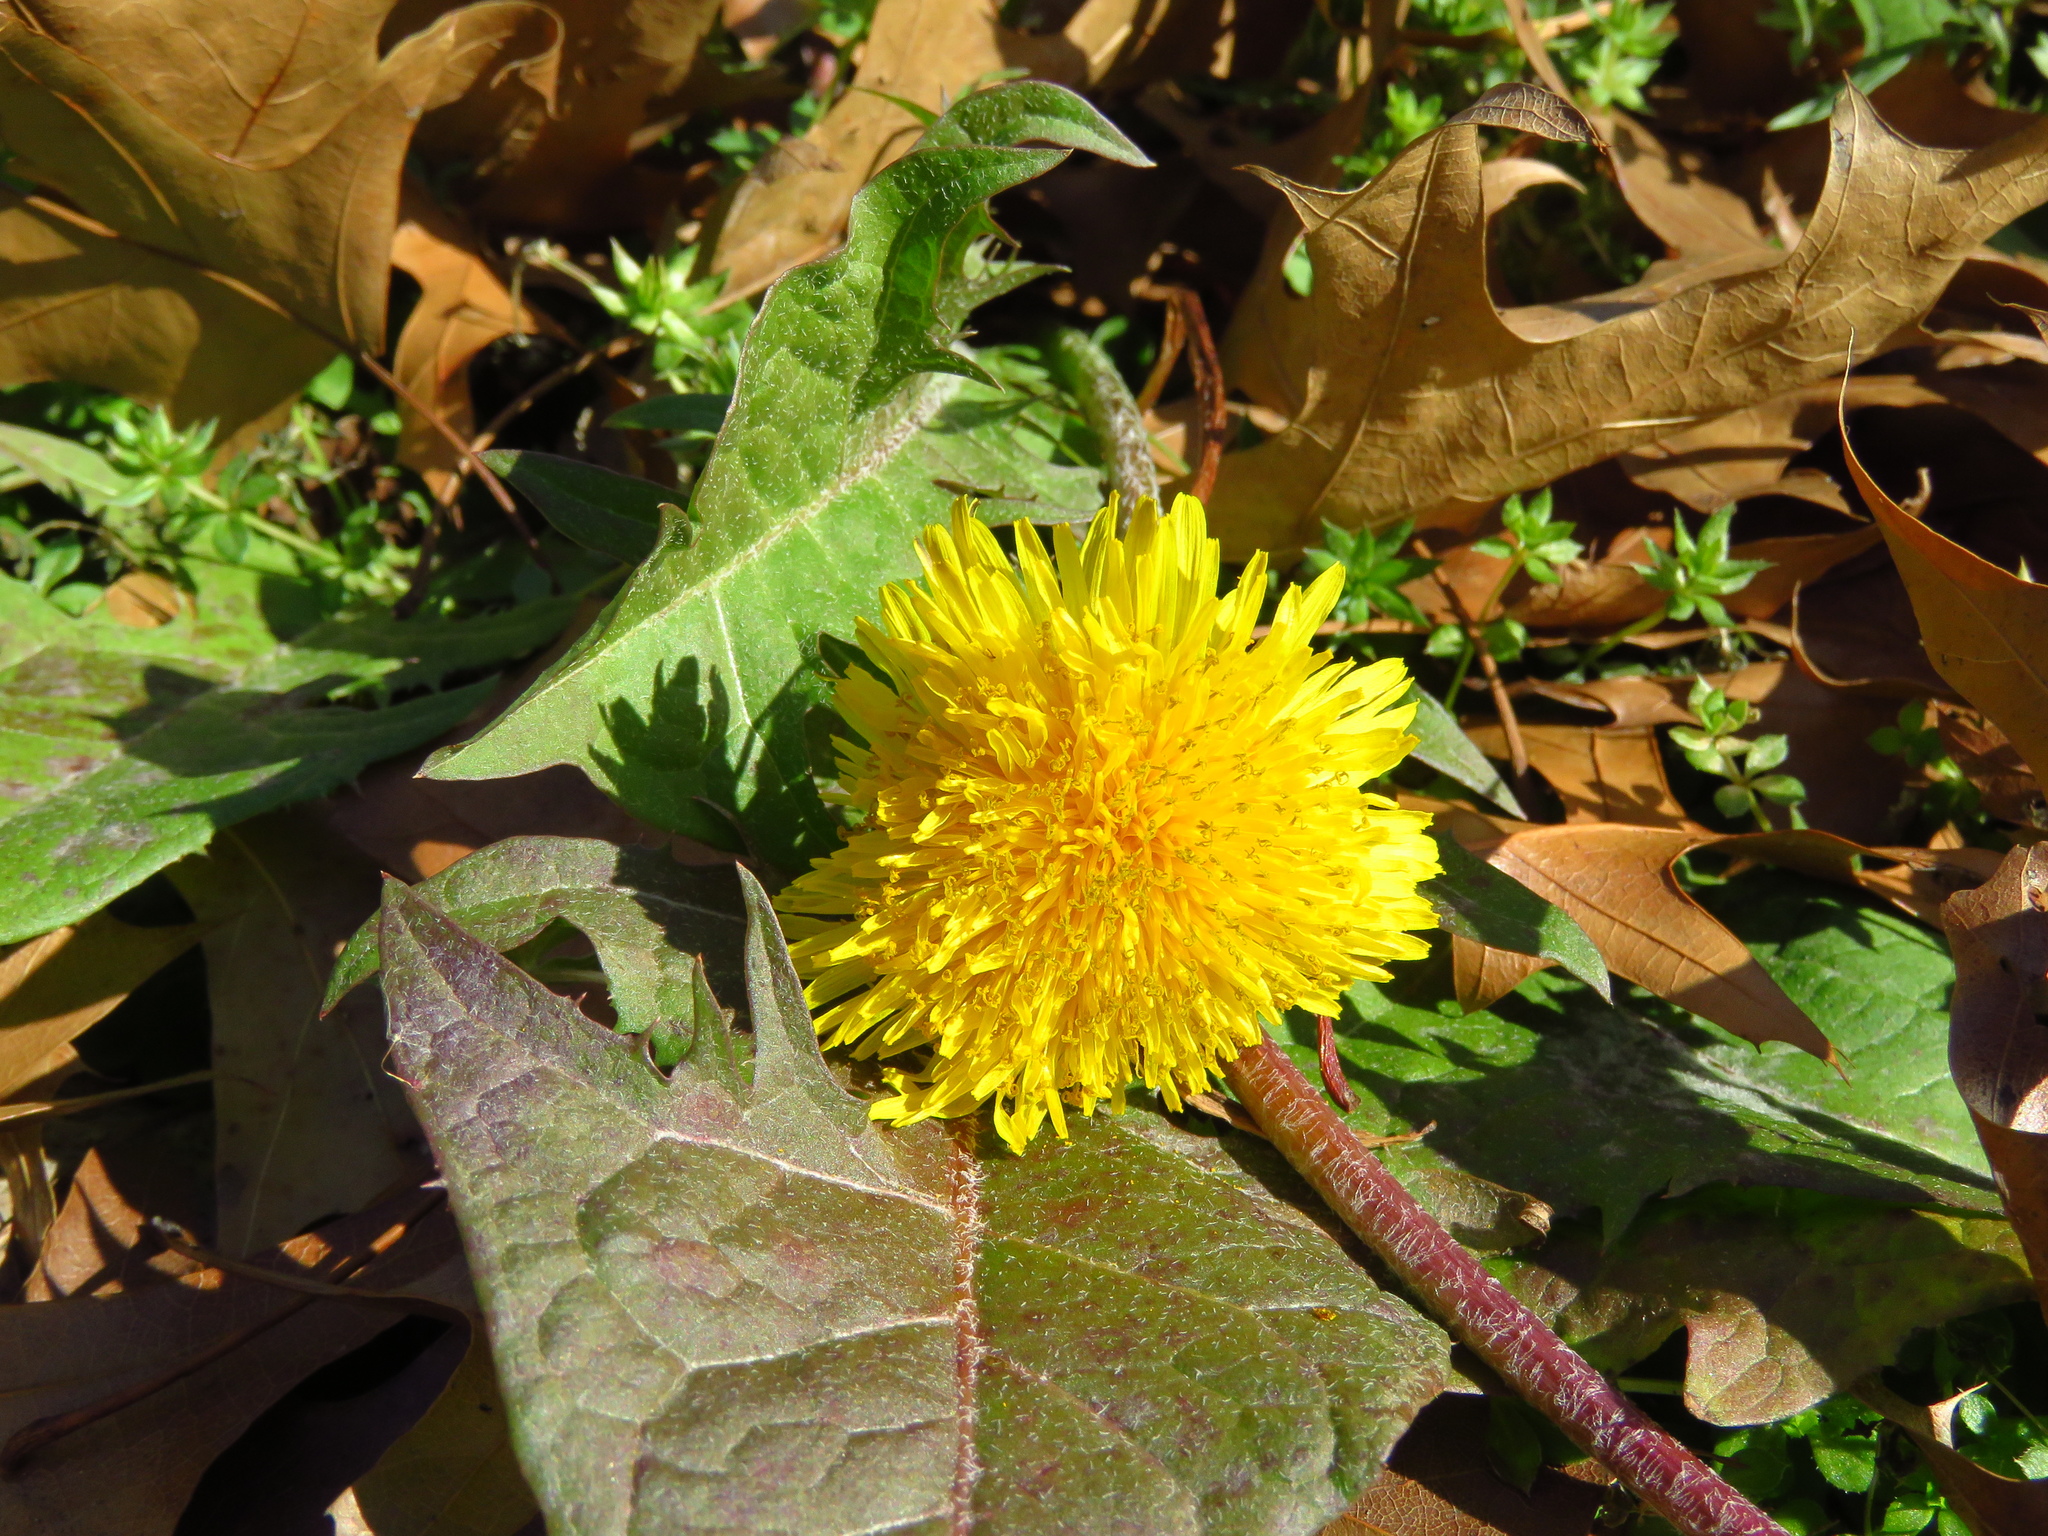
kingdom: Plantae
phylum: Tracheophyta
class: Magnoliopsida
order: Asterales
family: Asteraceae
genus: Taraxacum
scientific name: Taraxacum officinale
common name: Common dandelion
